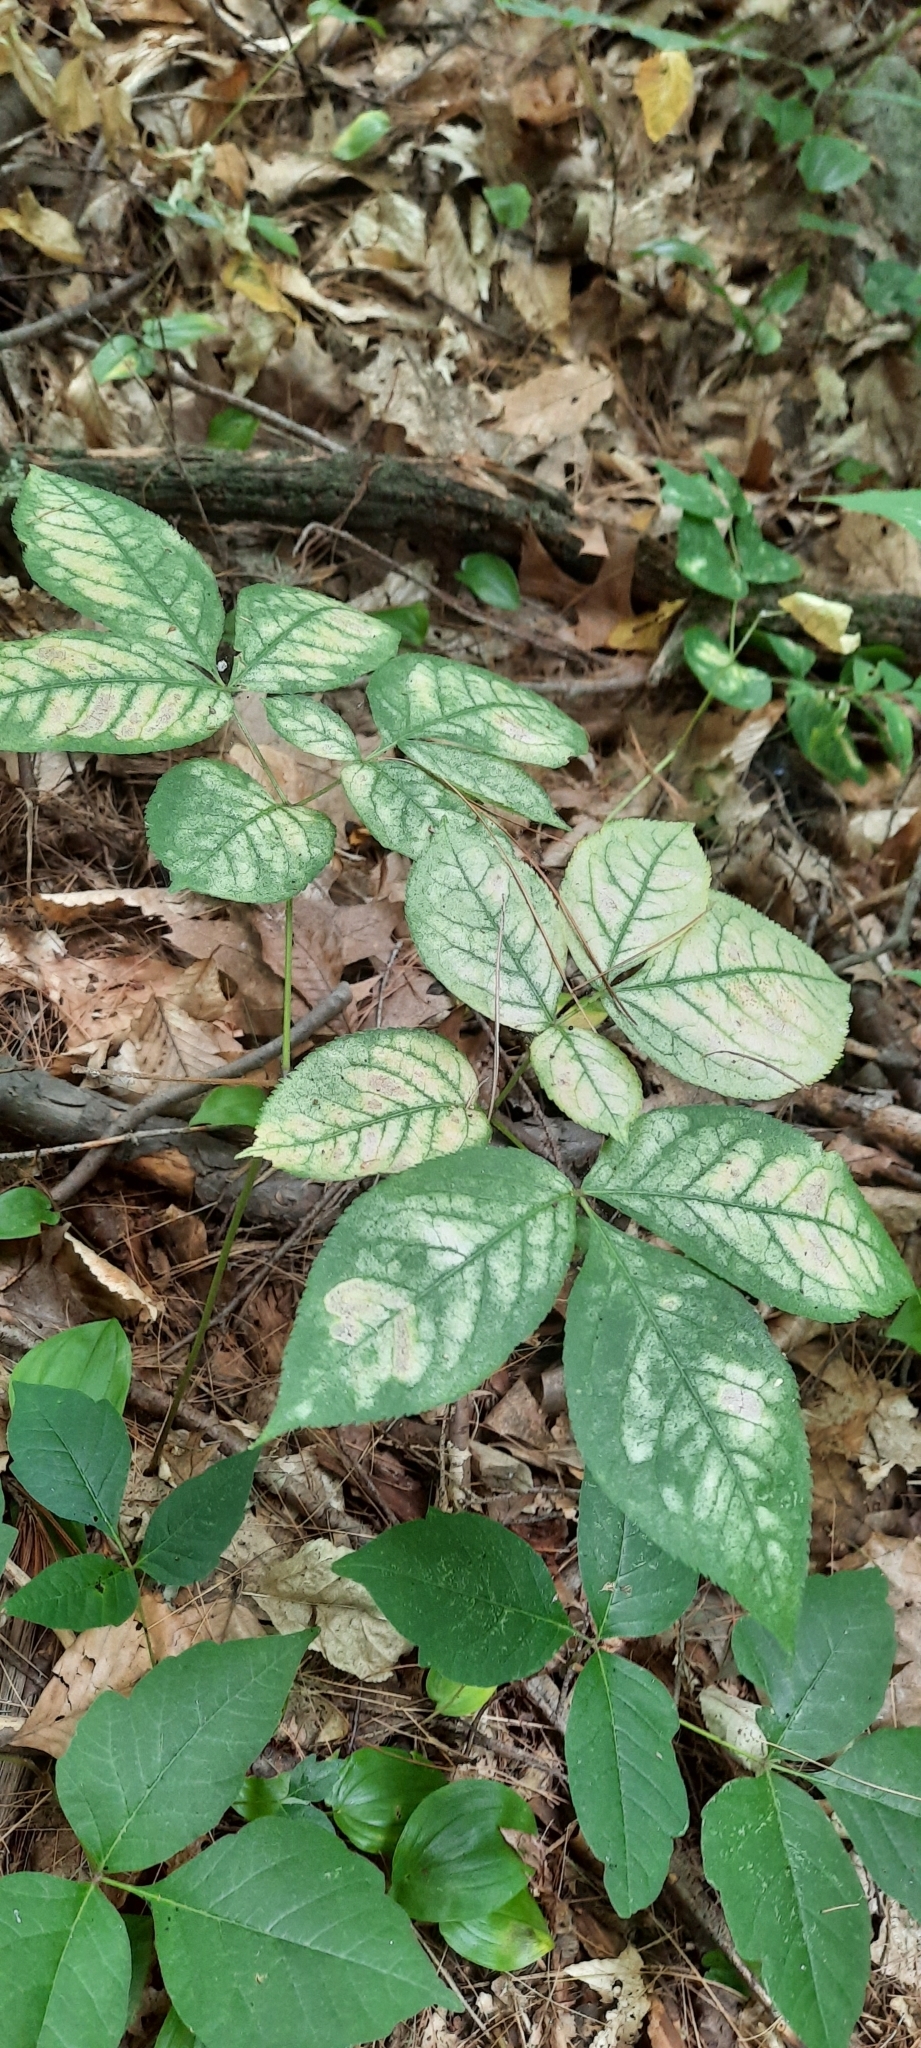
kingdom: Plantae
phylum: Tracheophyta
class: Magnoliopsida
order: Apiales
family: Araliaceae
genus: Aralia
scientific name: Aralia nudicaulis
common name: Wild sarsaparilla
